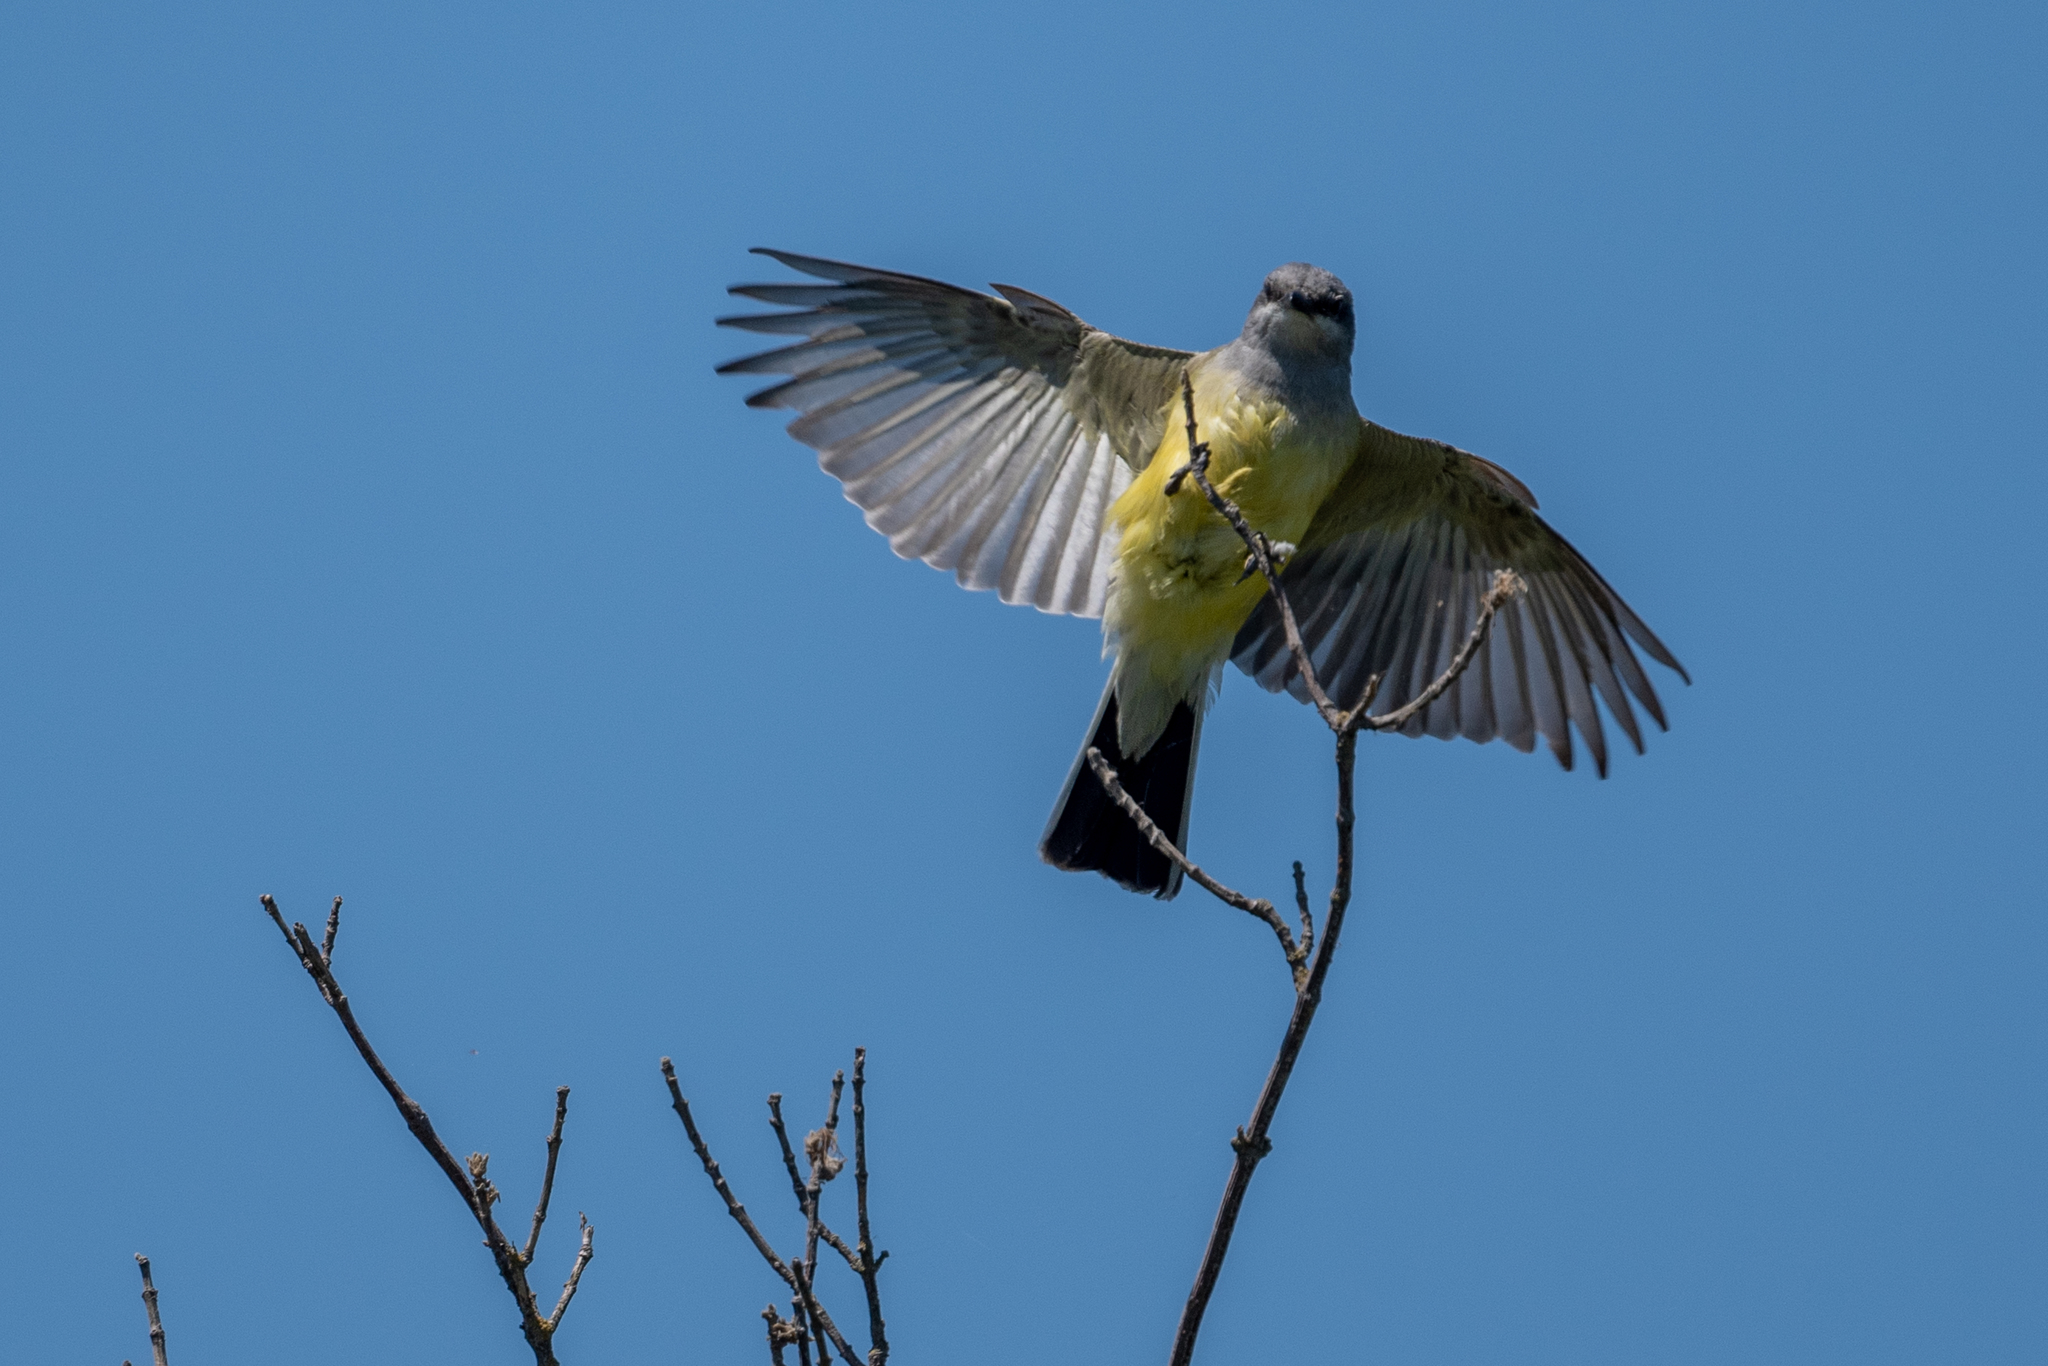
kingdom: Animalia
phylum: Chordata
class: Aves
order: Passeriformes
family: Tyrannidae
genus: Tyrannus
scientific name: Tyrannus verticalis
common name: Western kingbird
